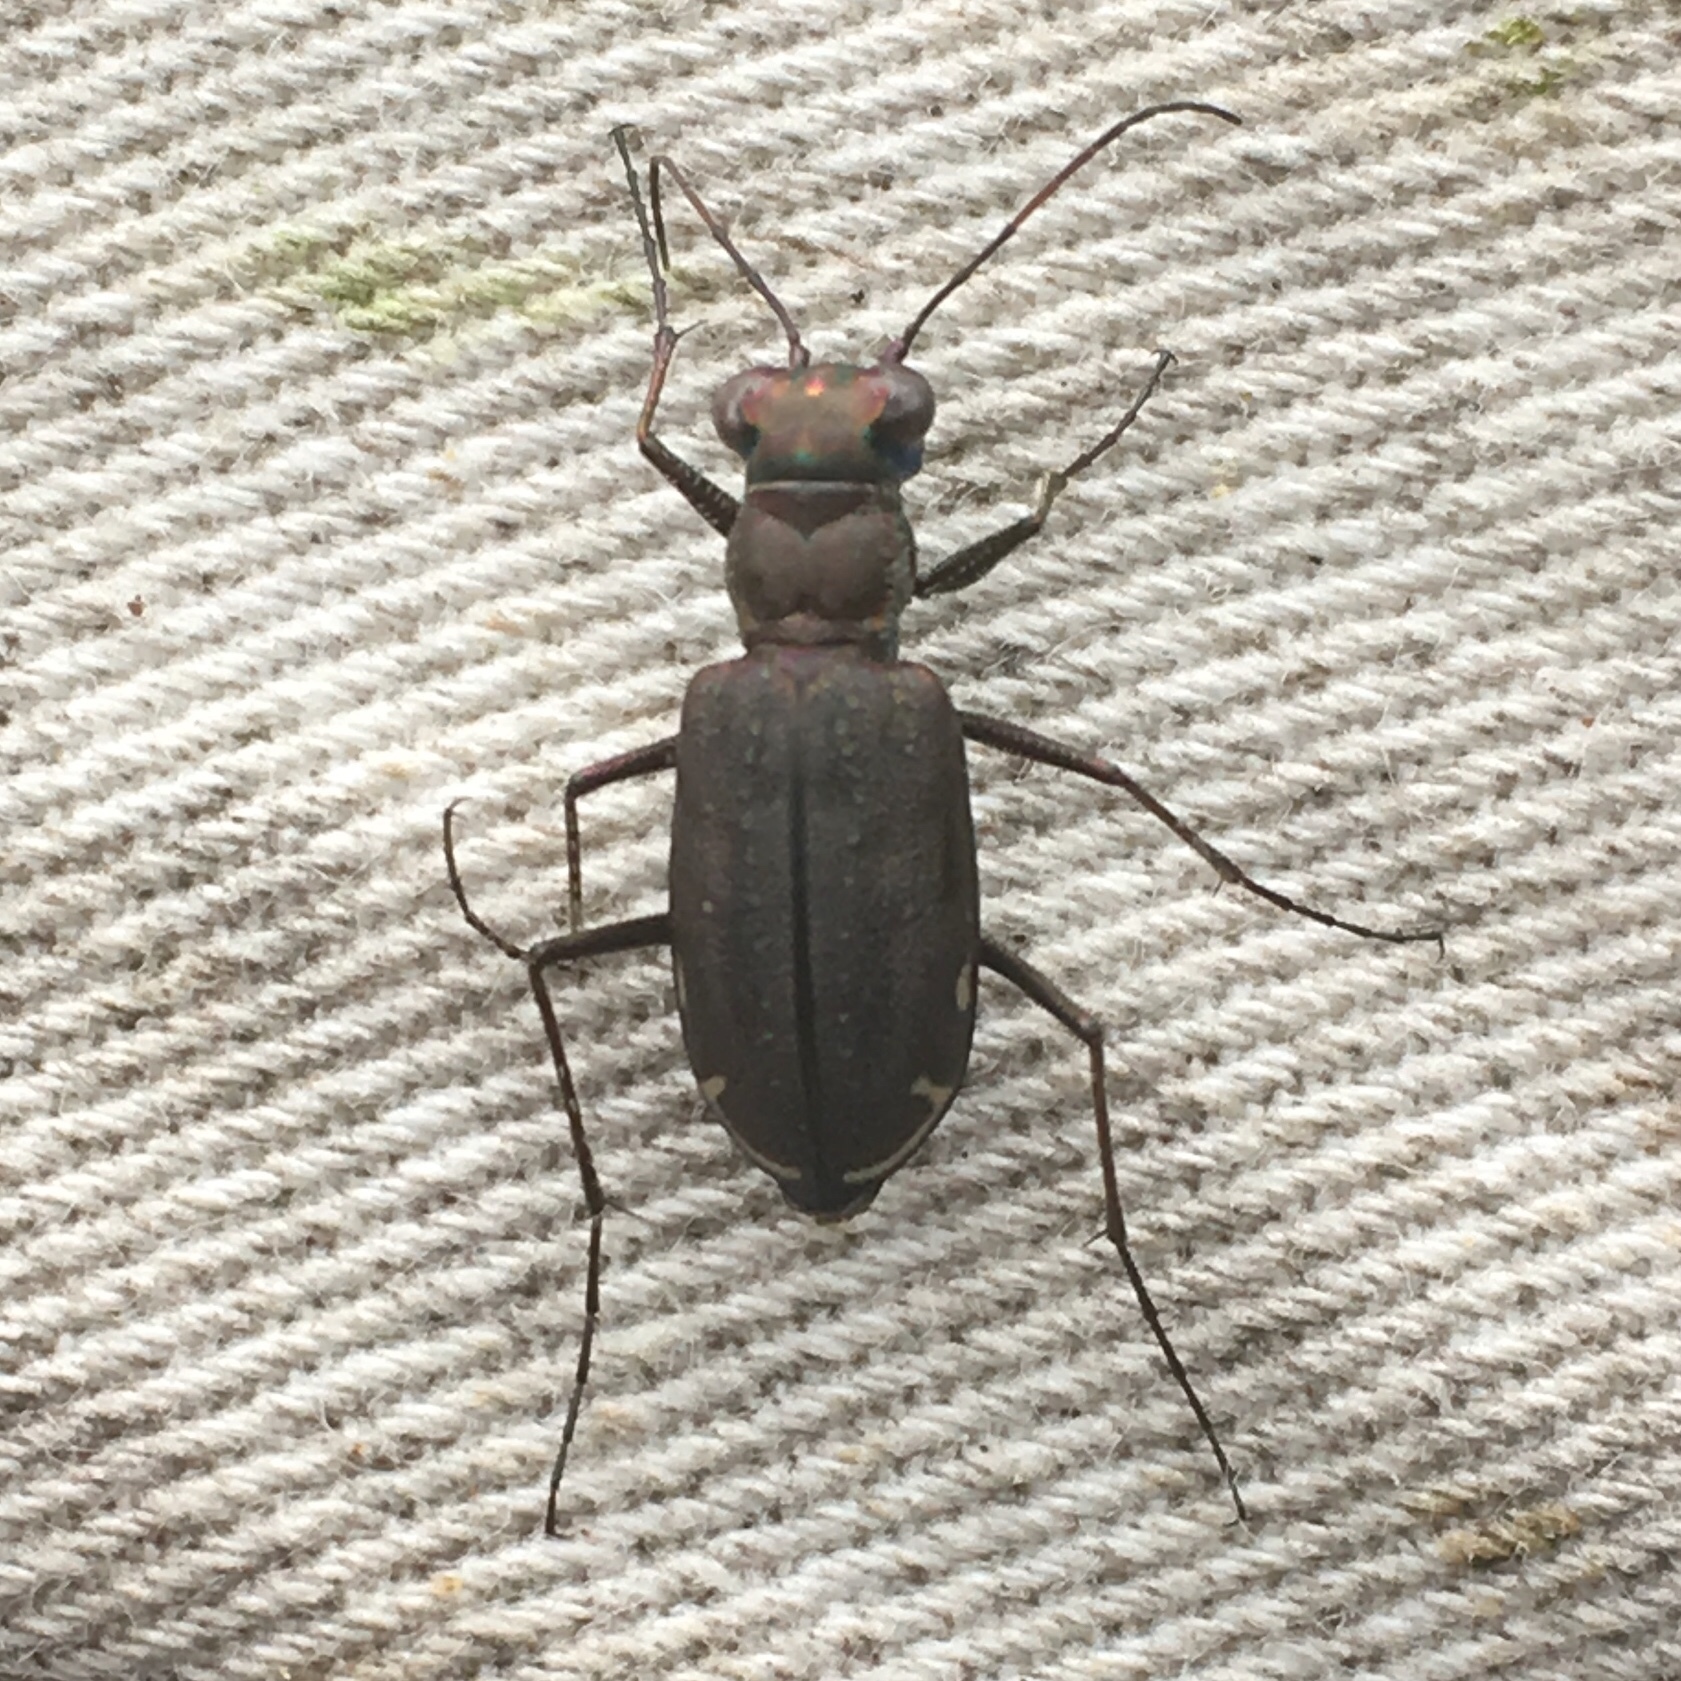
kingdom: Animalia
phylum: Arthropoda
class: Insecta
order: Coleoptera
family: Carabidae
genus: Cicindela
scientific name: Cicindela punctulata
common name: Punctured tiger beetle
